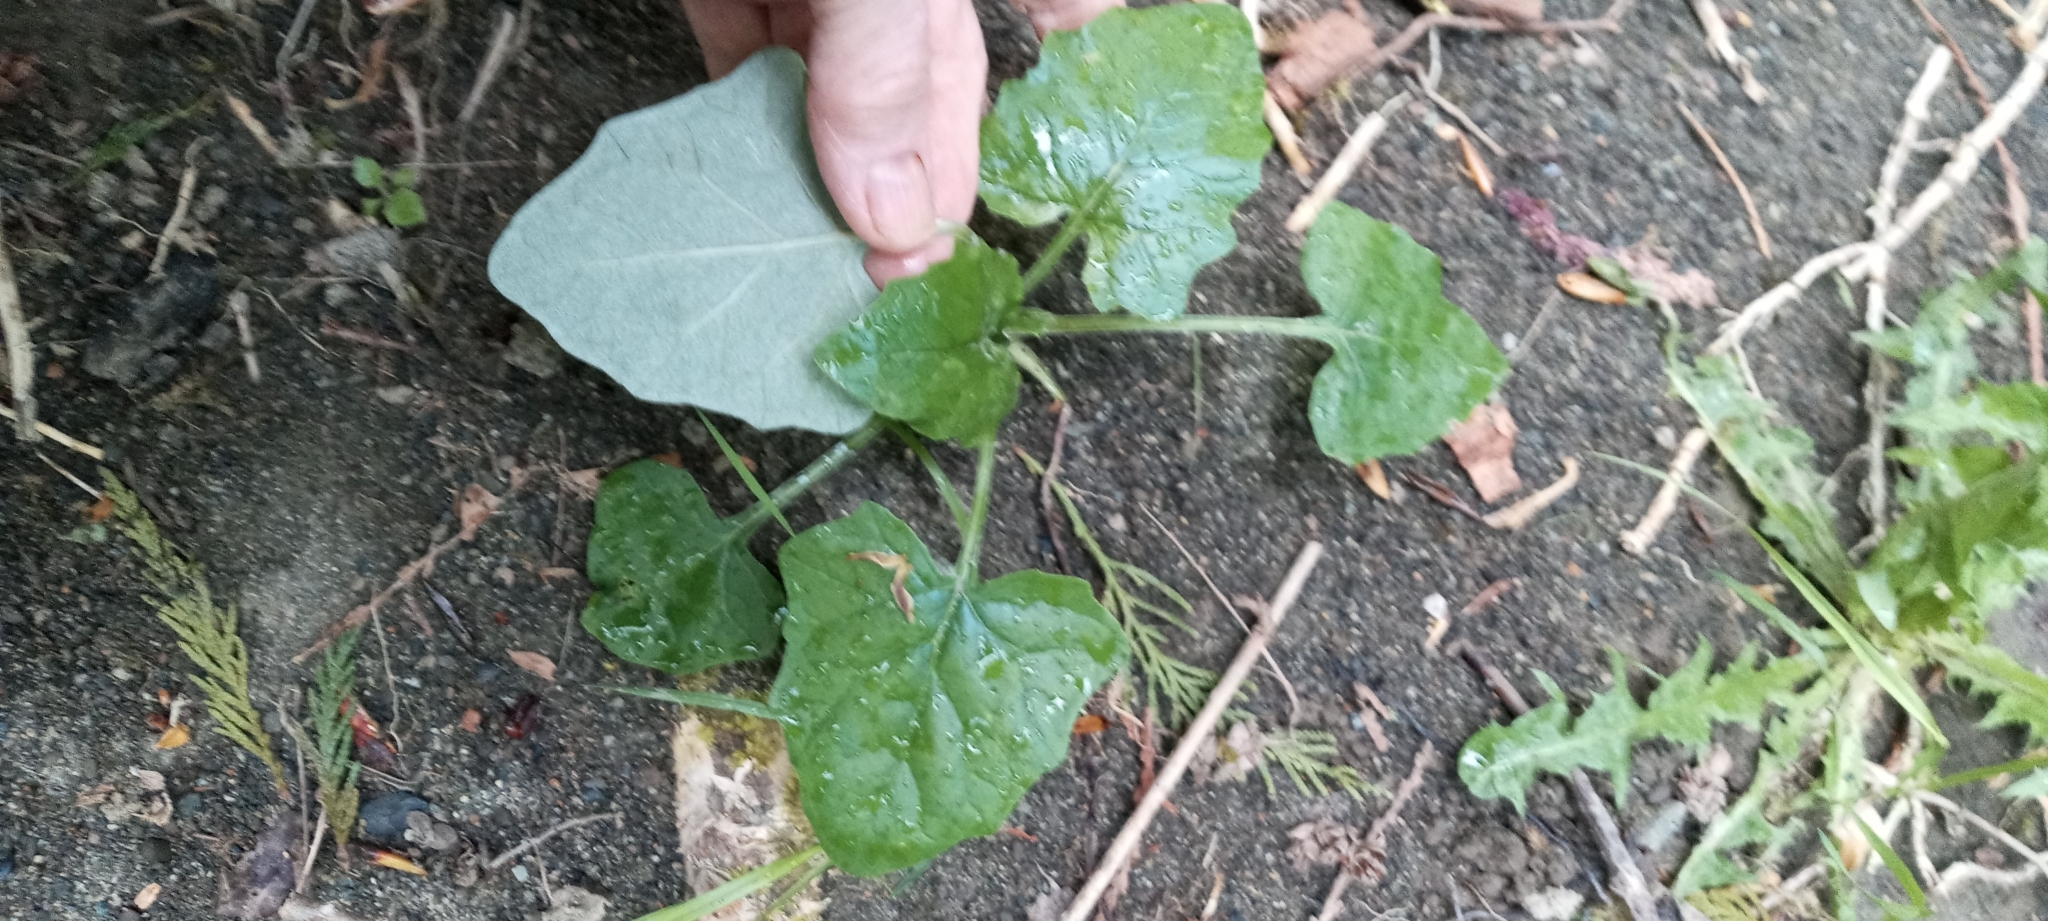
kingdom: Plantae
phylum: Tracheophyta
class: Magnoliopsida
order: Asterales
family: Asteraceae
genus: Adenocaulon
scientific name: Adenocaulon bicolor
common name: Trailplant
